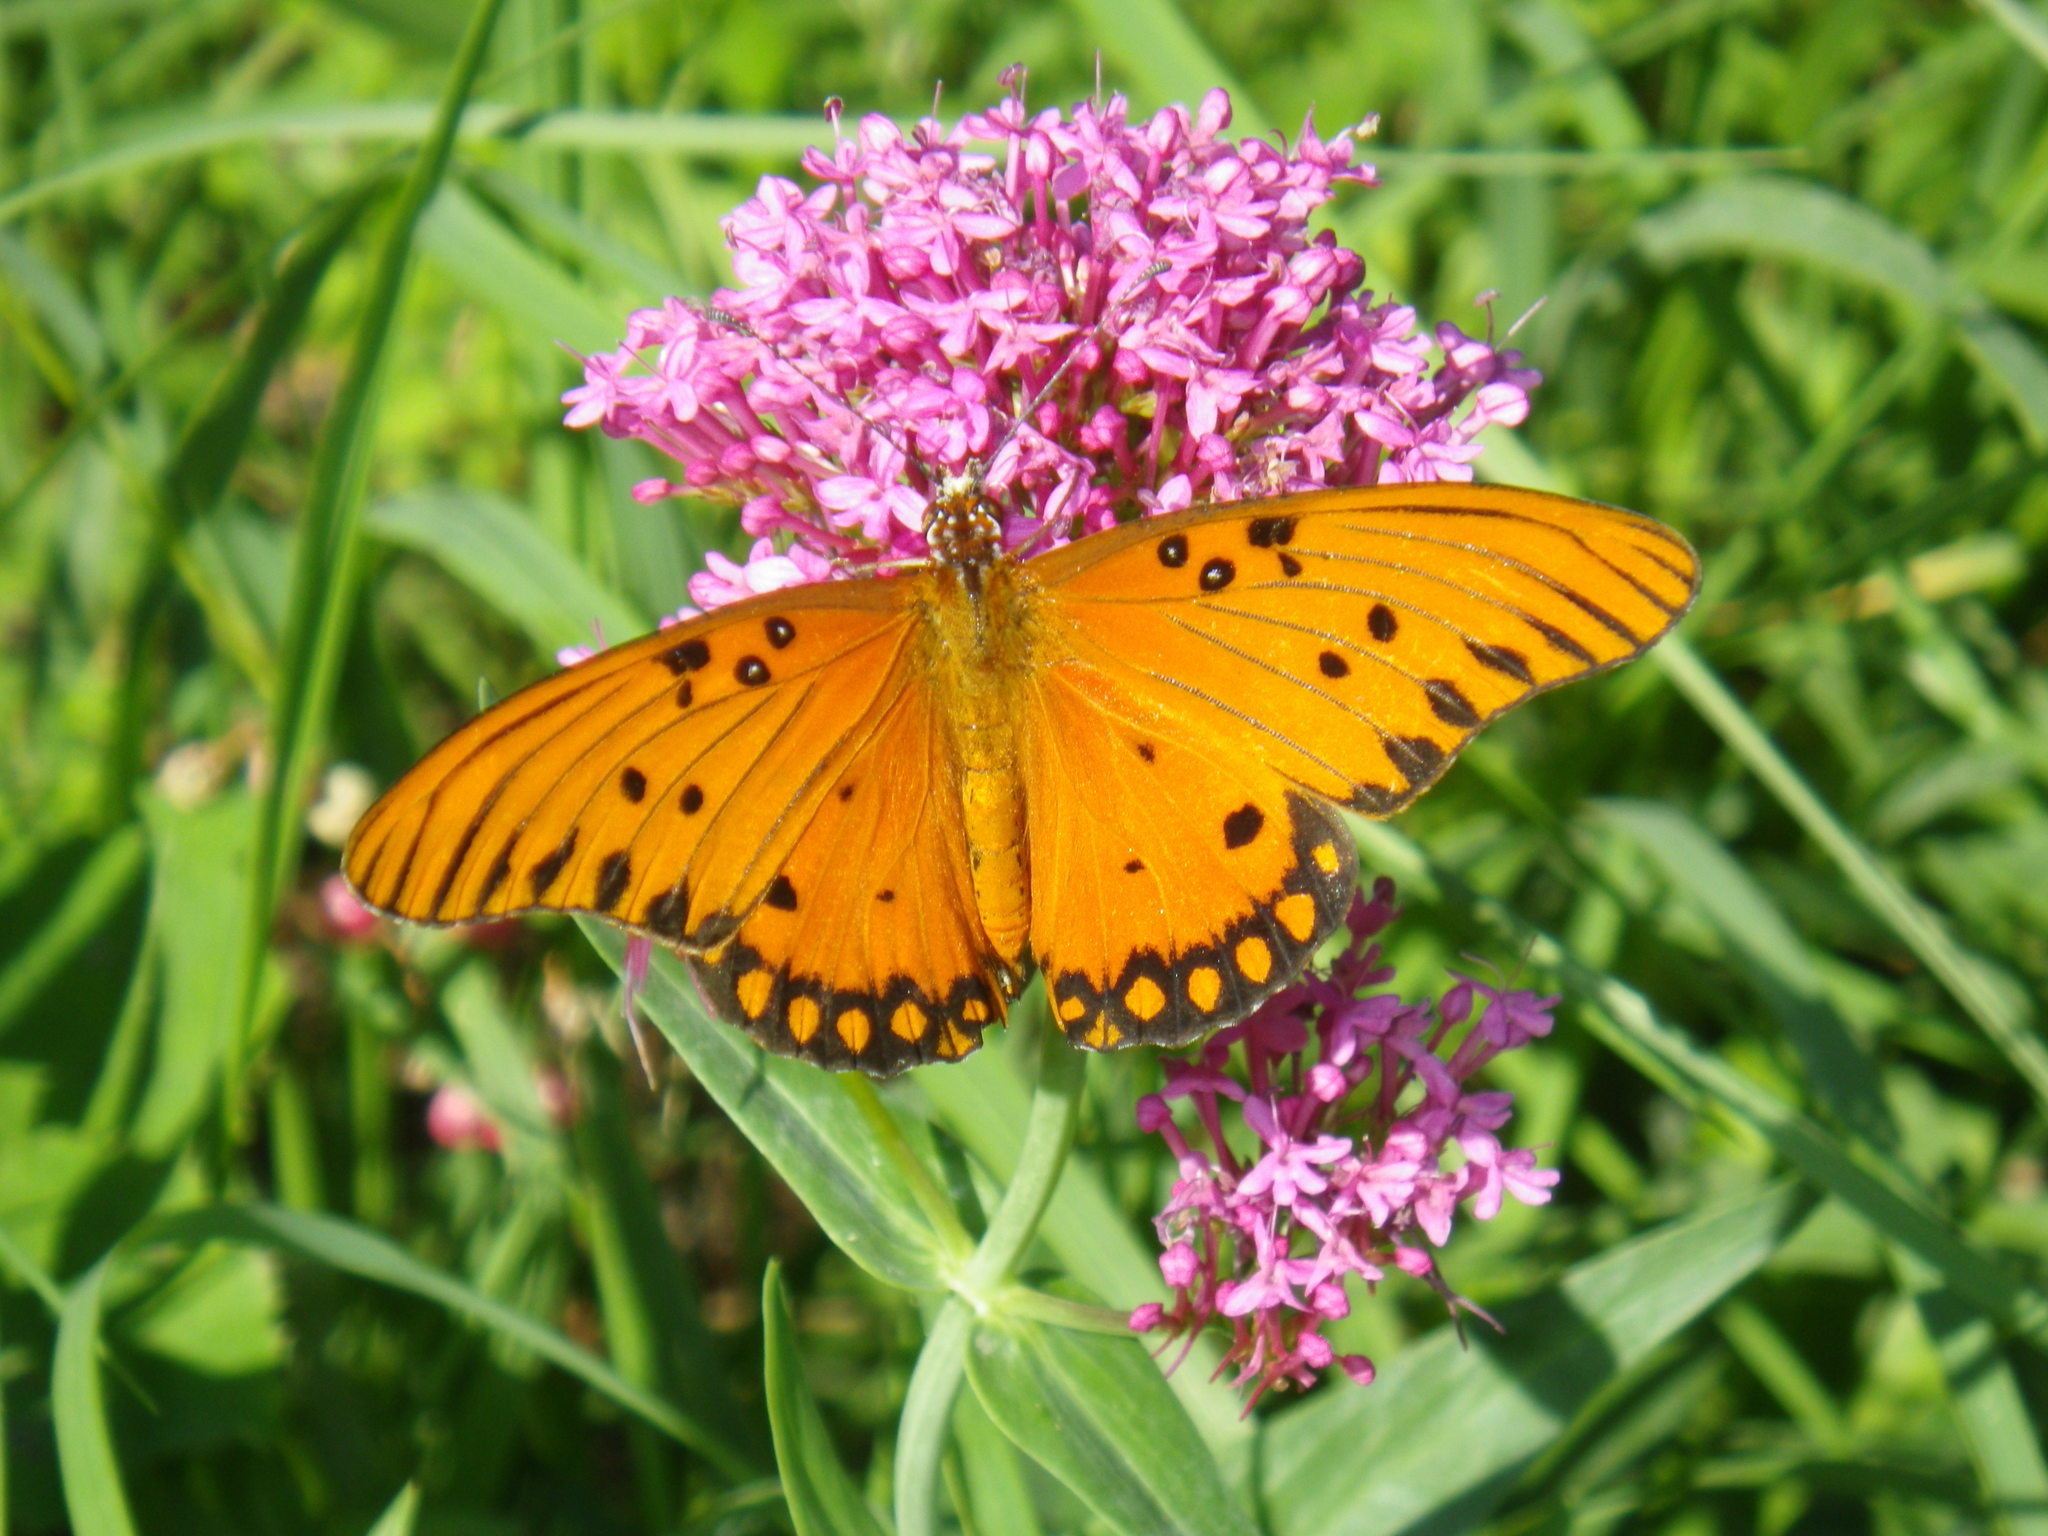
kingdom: Animalia
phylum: Arthropoda
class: Insecta
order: Lepidoptera
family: Nymphalidae
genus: Dione
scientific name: Dione vanillae
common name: Gulf fritillary
